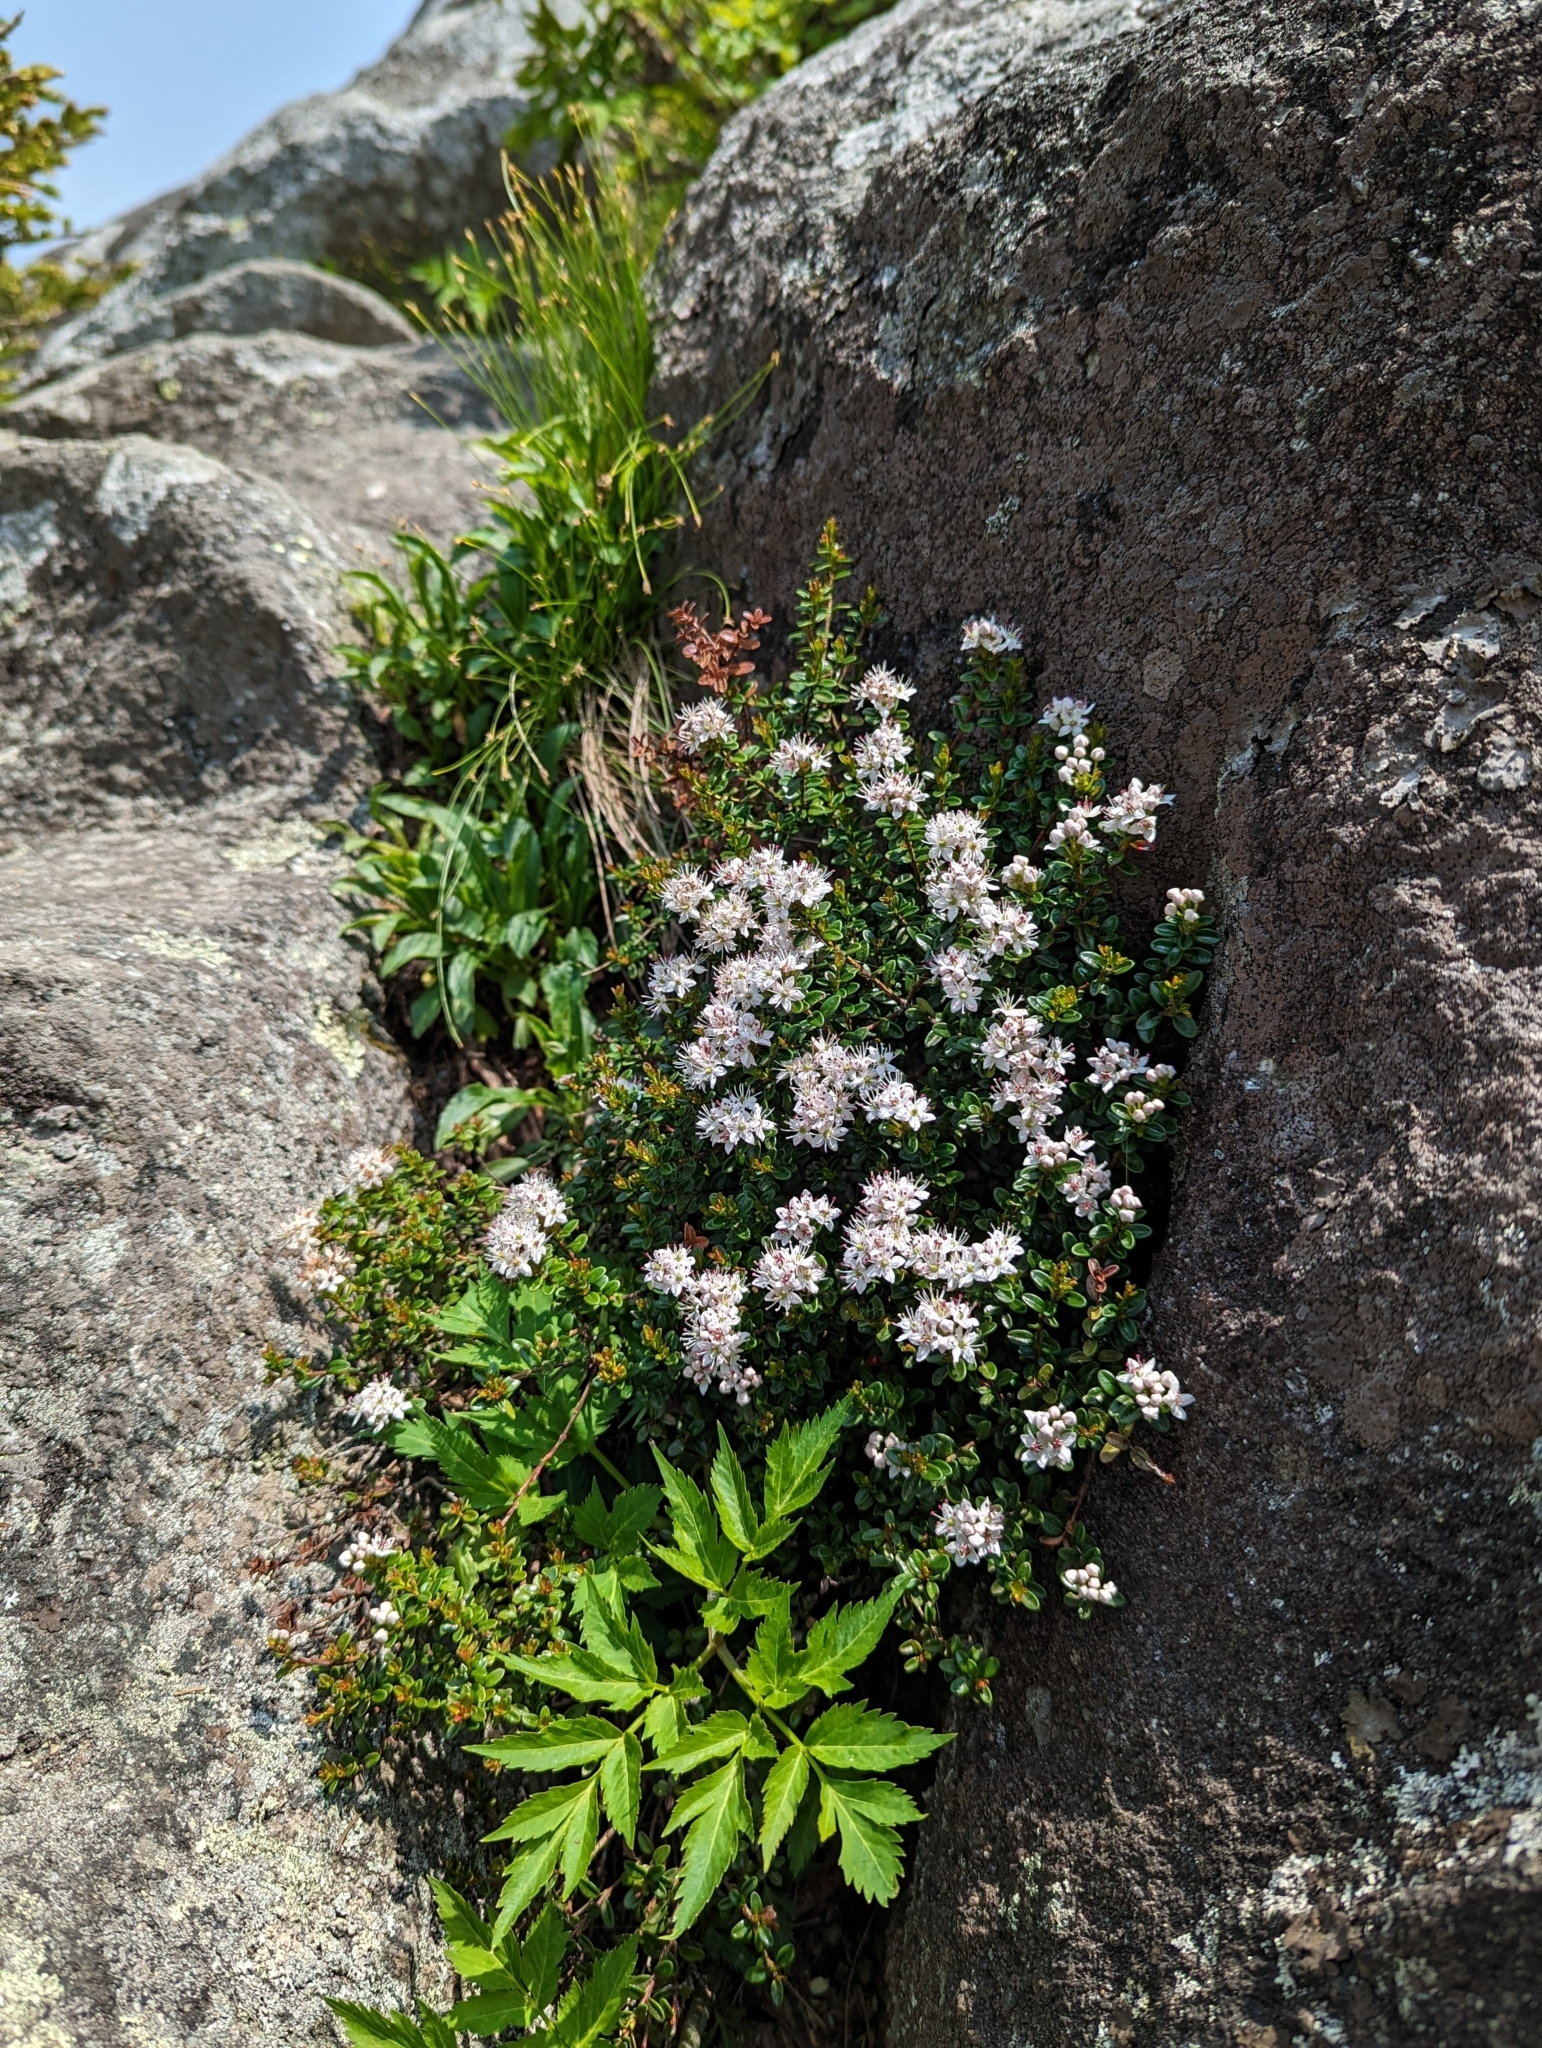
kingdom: Plantae
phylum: Tracheophyta
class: Magnoliopsida
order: Ericales
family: Ericaceae
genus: Kalmia
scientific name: Kalmia buxifolia
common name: Sandmyrtle
